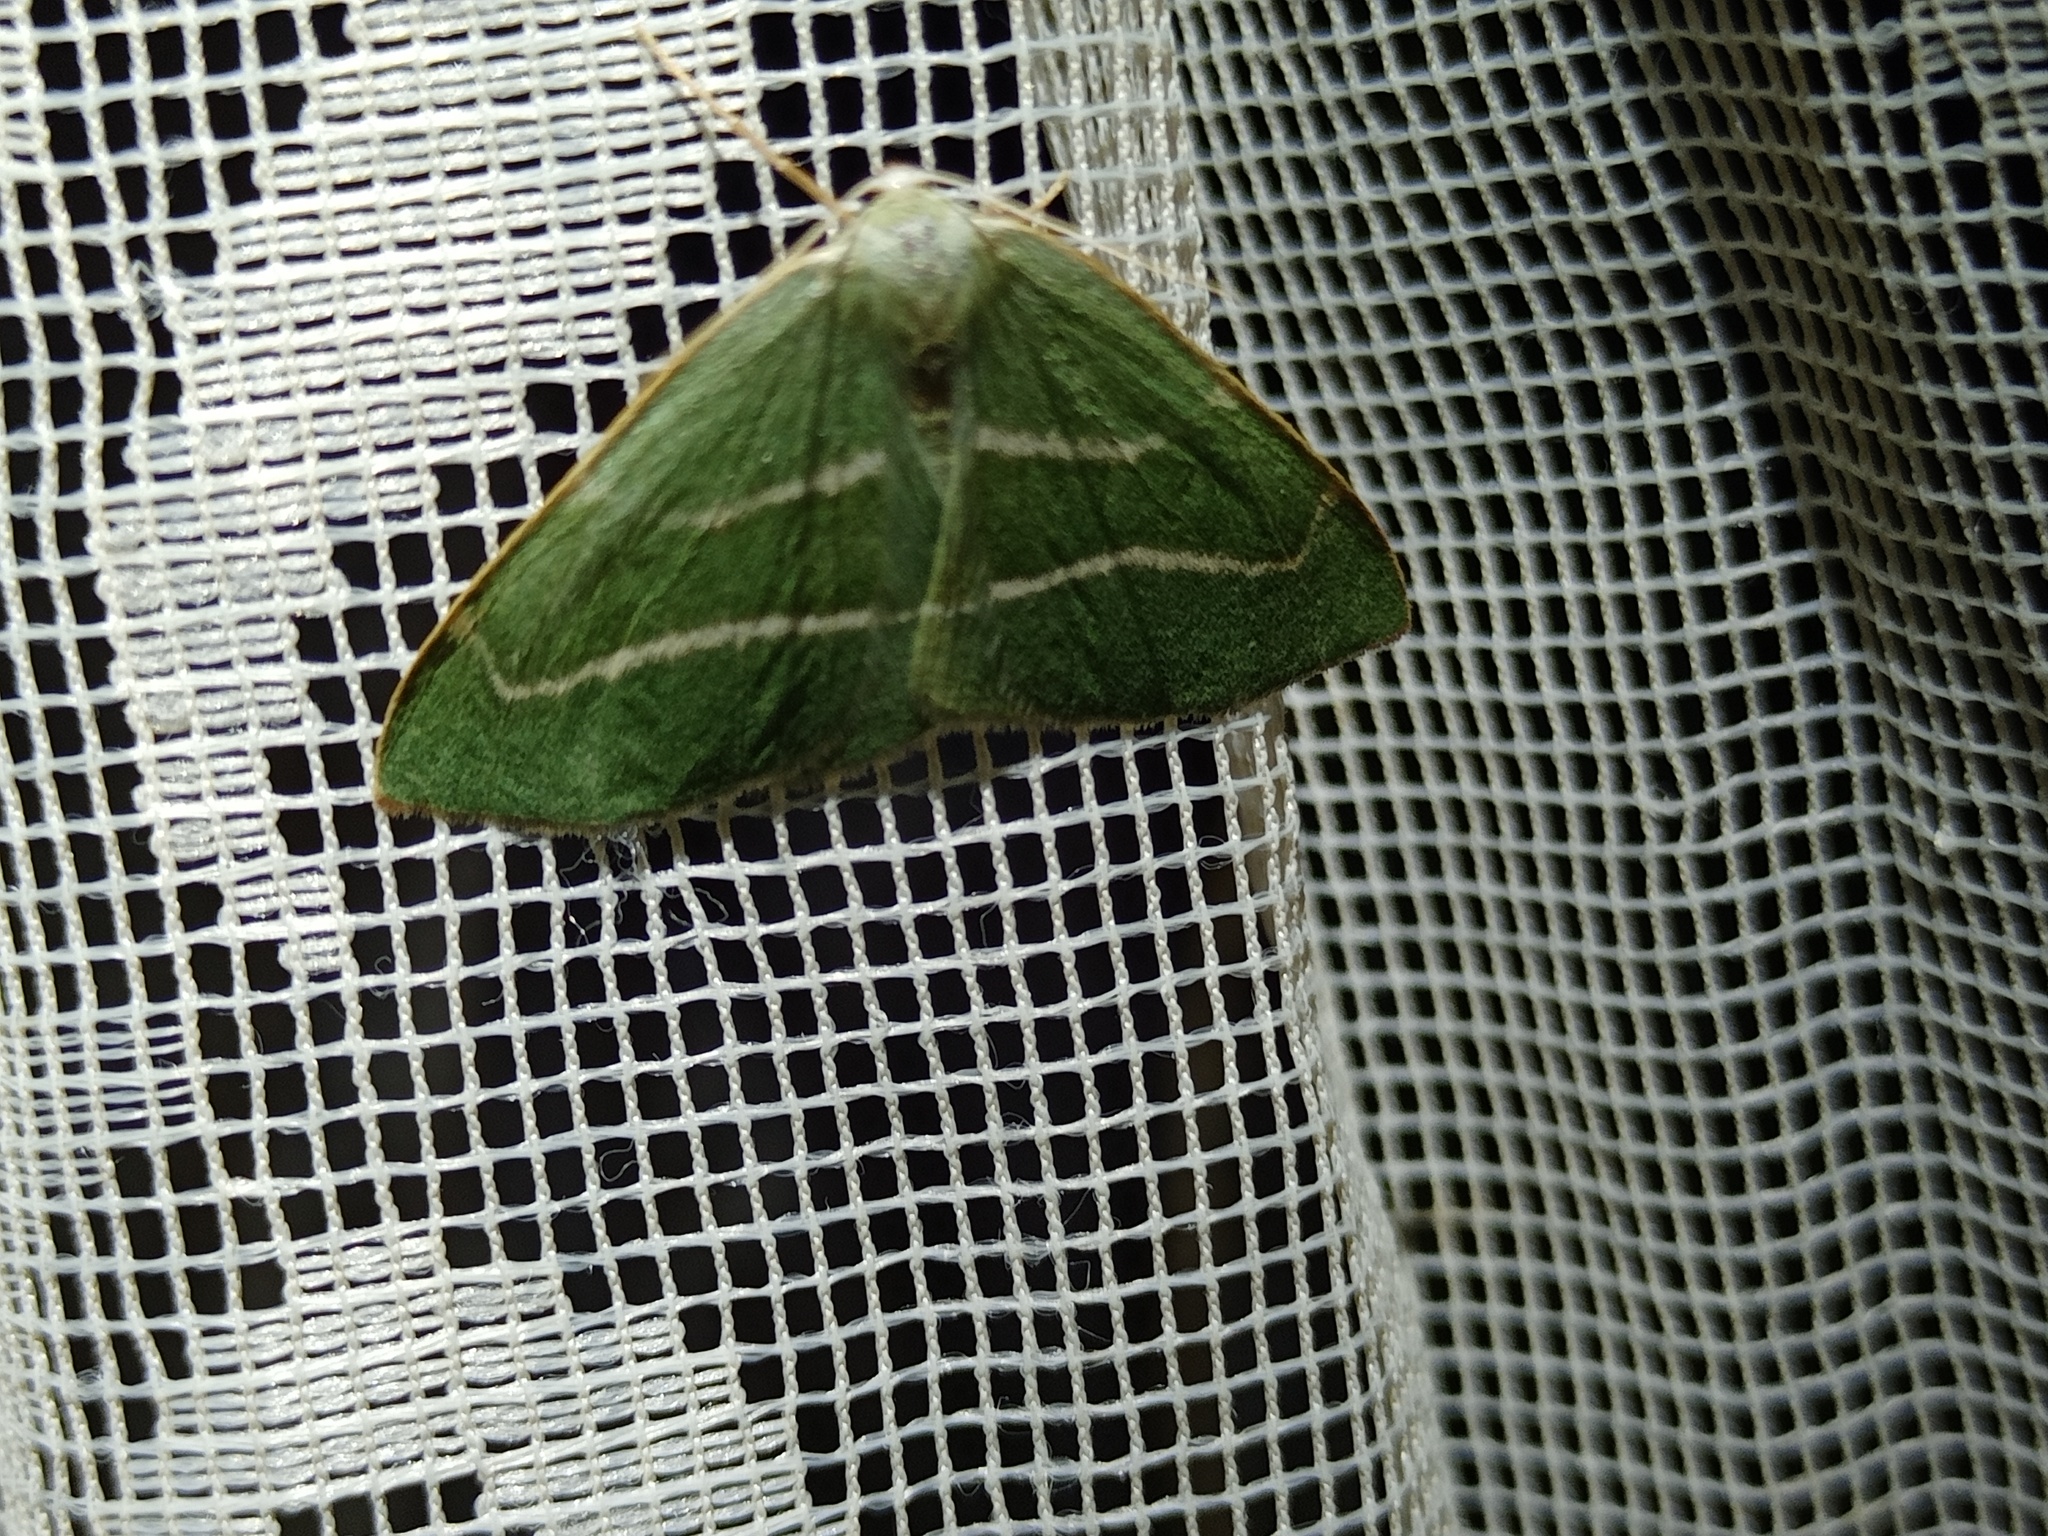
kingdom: Animalia
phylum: Arthropoda
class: Insecta
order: Lepidoptera
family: Geometridae
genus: Hylaea
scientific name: Hylaea fasciaria
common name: Barred red
